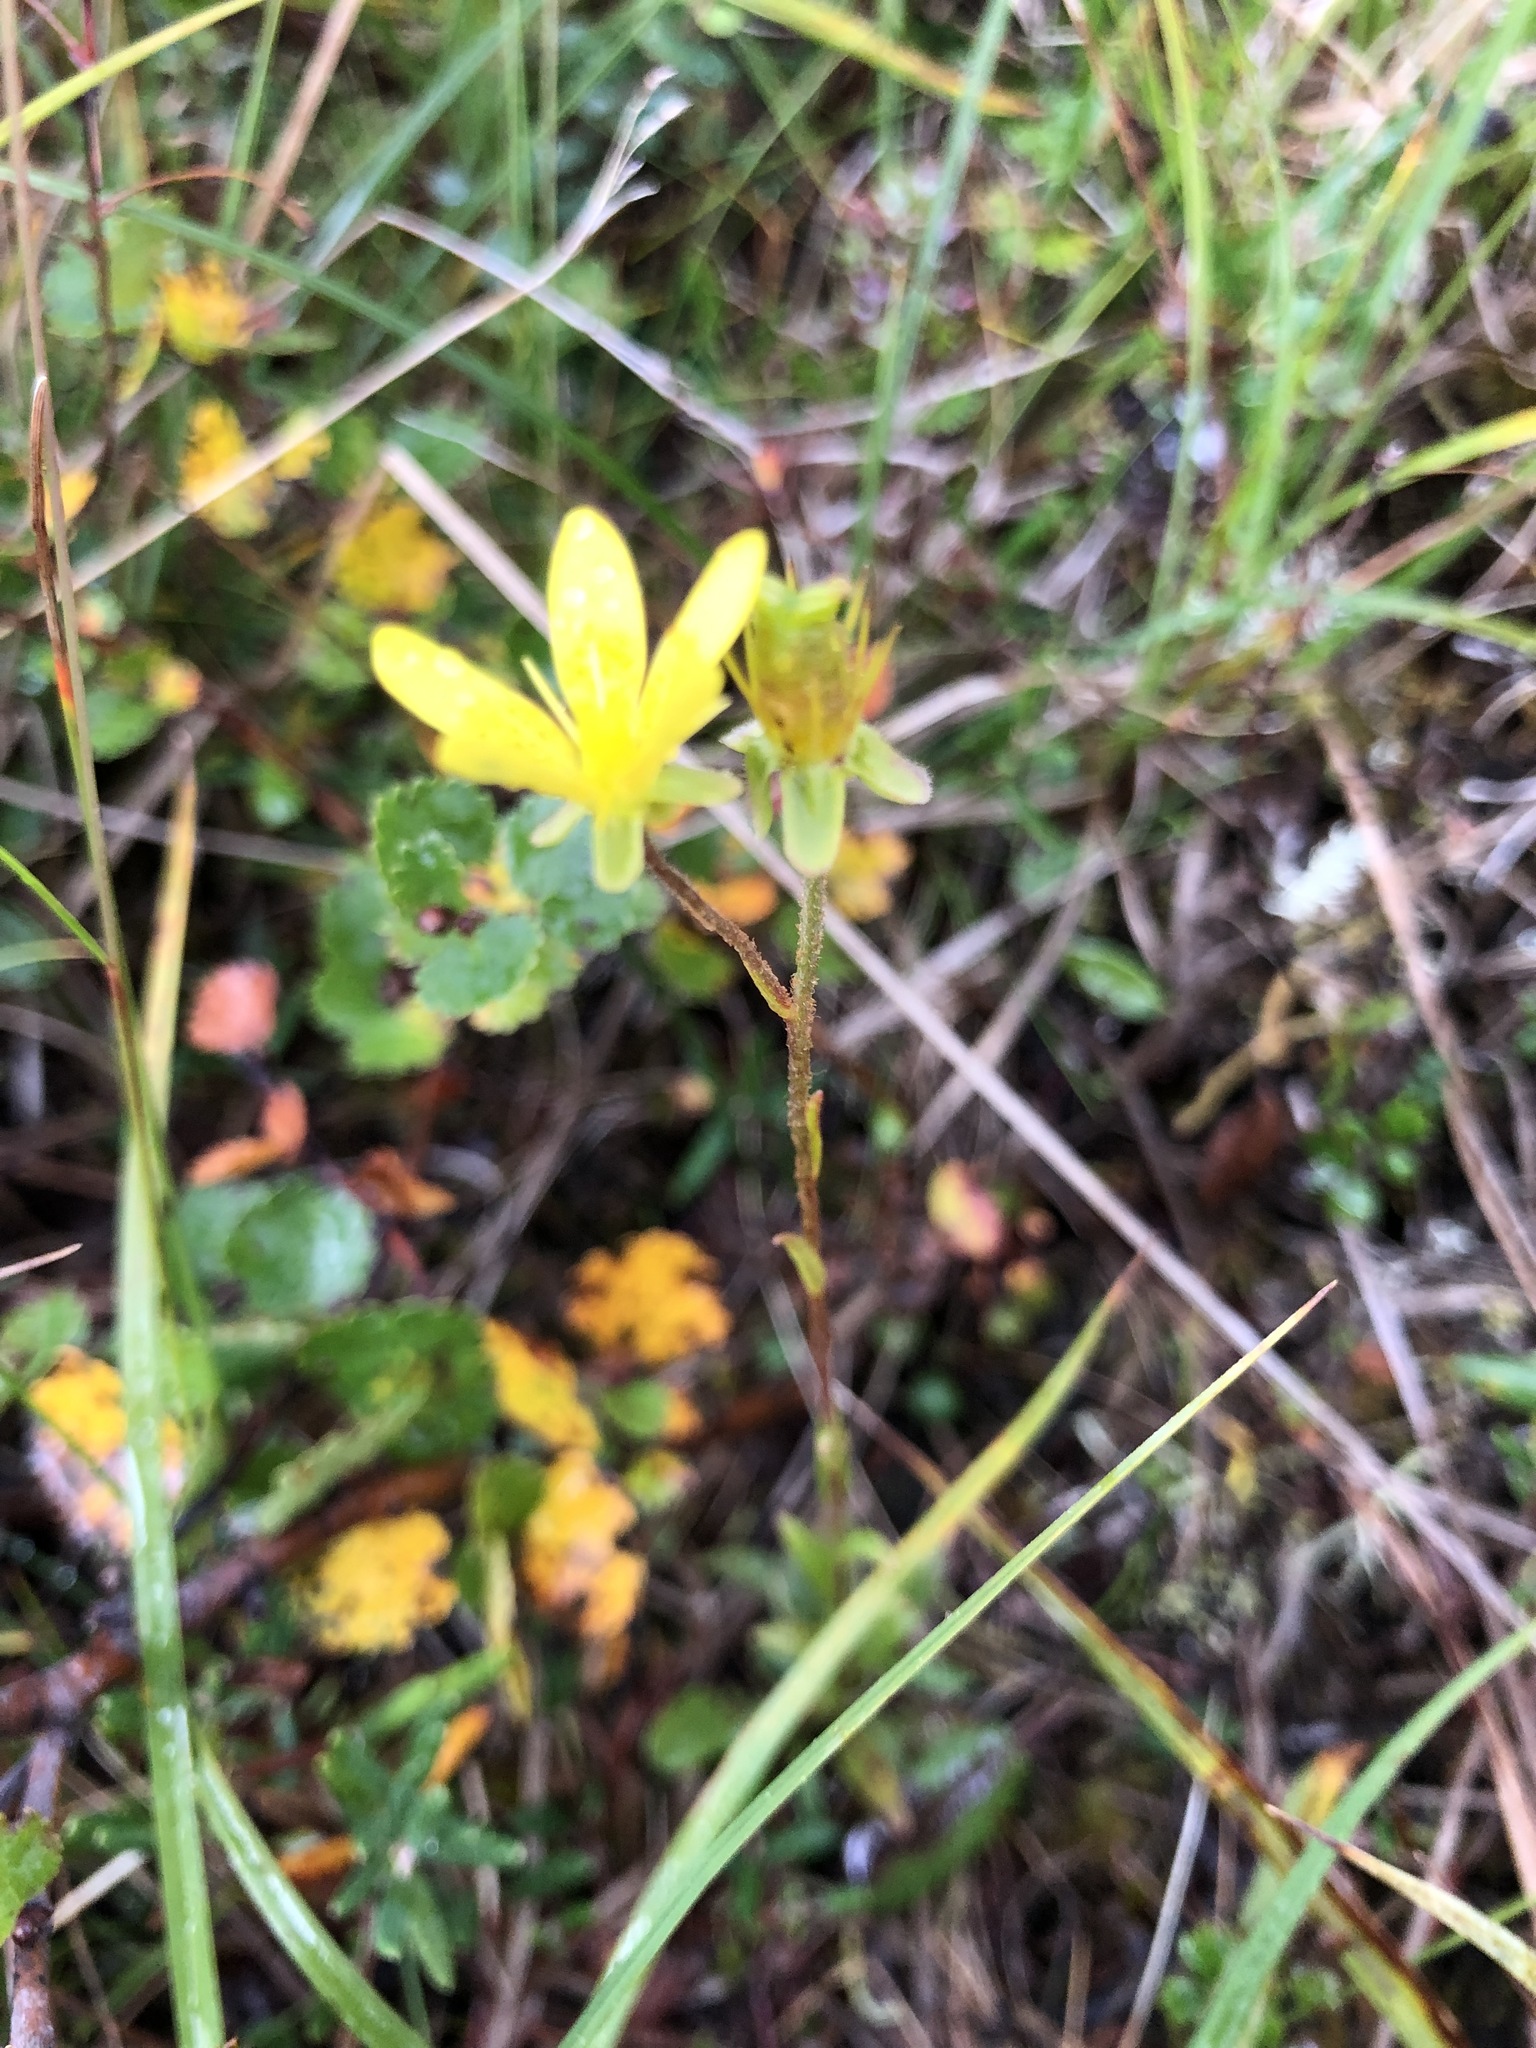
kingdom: Plantae
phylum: Tracheophyta
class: Magnoliopsida
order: Saxifragales
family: Saxifragaceae
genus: Saxifraga
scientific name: Saxifraga hirculus
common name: Yellow marsh saxifrage
